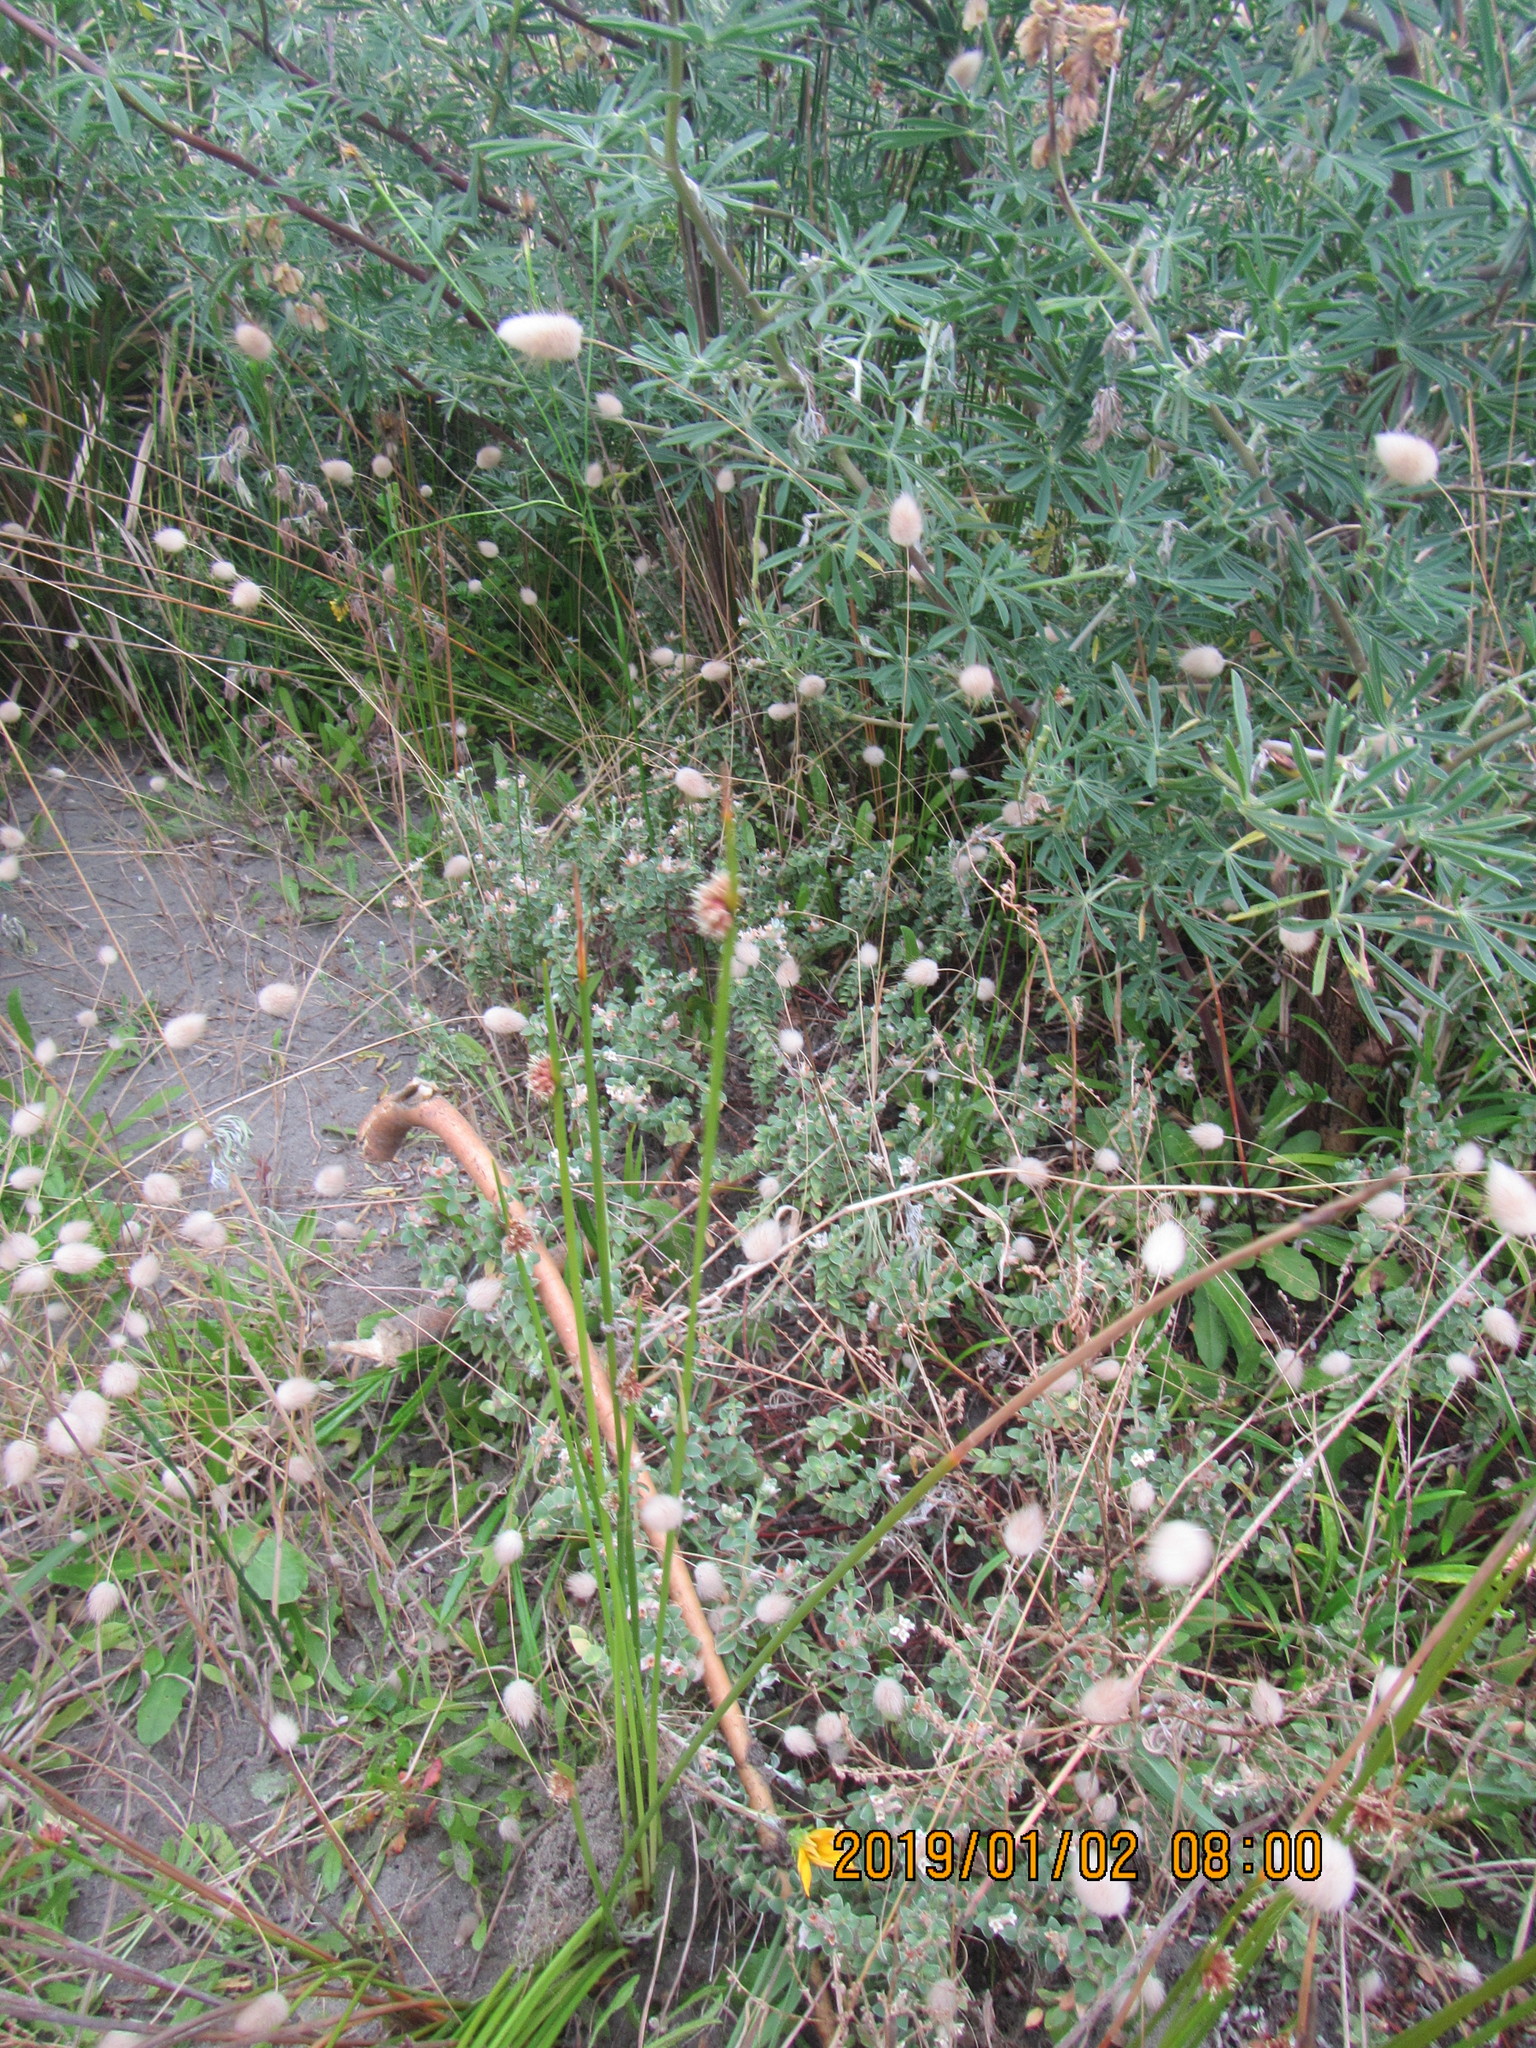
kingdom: Plantae
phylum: Tracheophyta
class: Magnoliopsida
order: Malvales
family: Thymelaeaceae
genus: Pimelea
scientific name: Pimelea villosa
